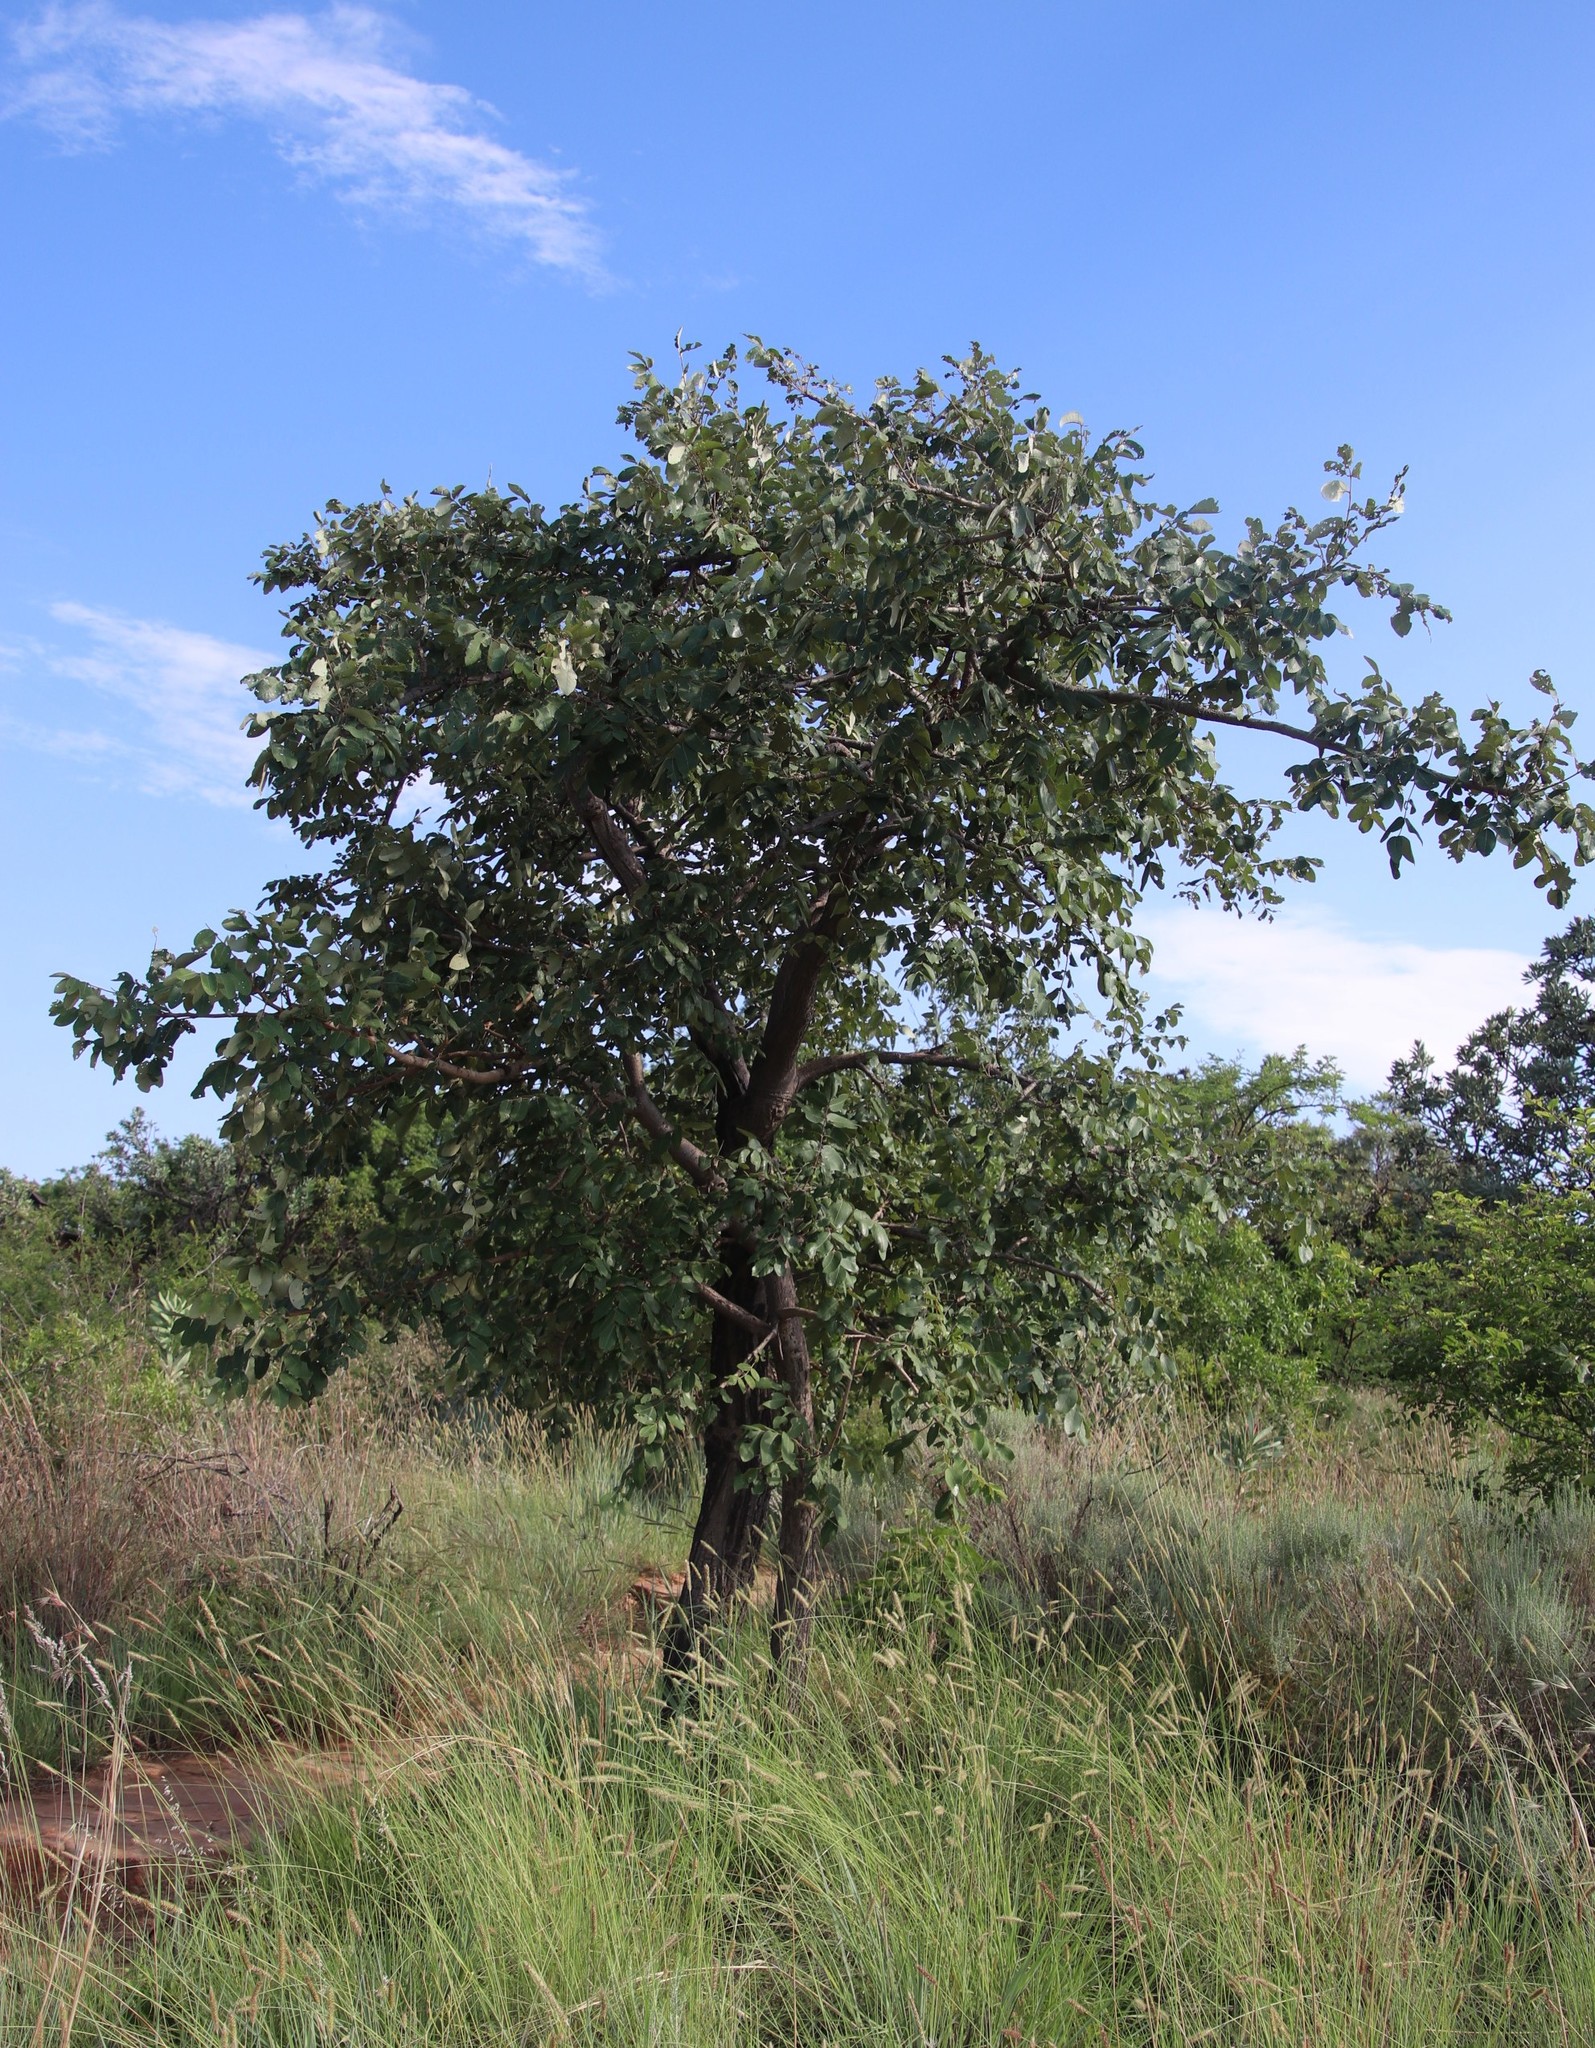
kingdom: Plantae
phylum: Tracheophyta
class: Magnoliopsida
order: Sapindales
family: Anacardiaceae
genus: Lannea
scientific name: Lannea discolor
